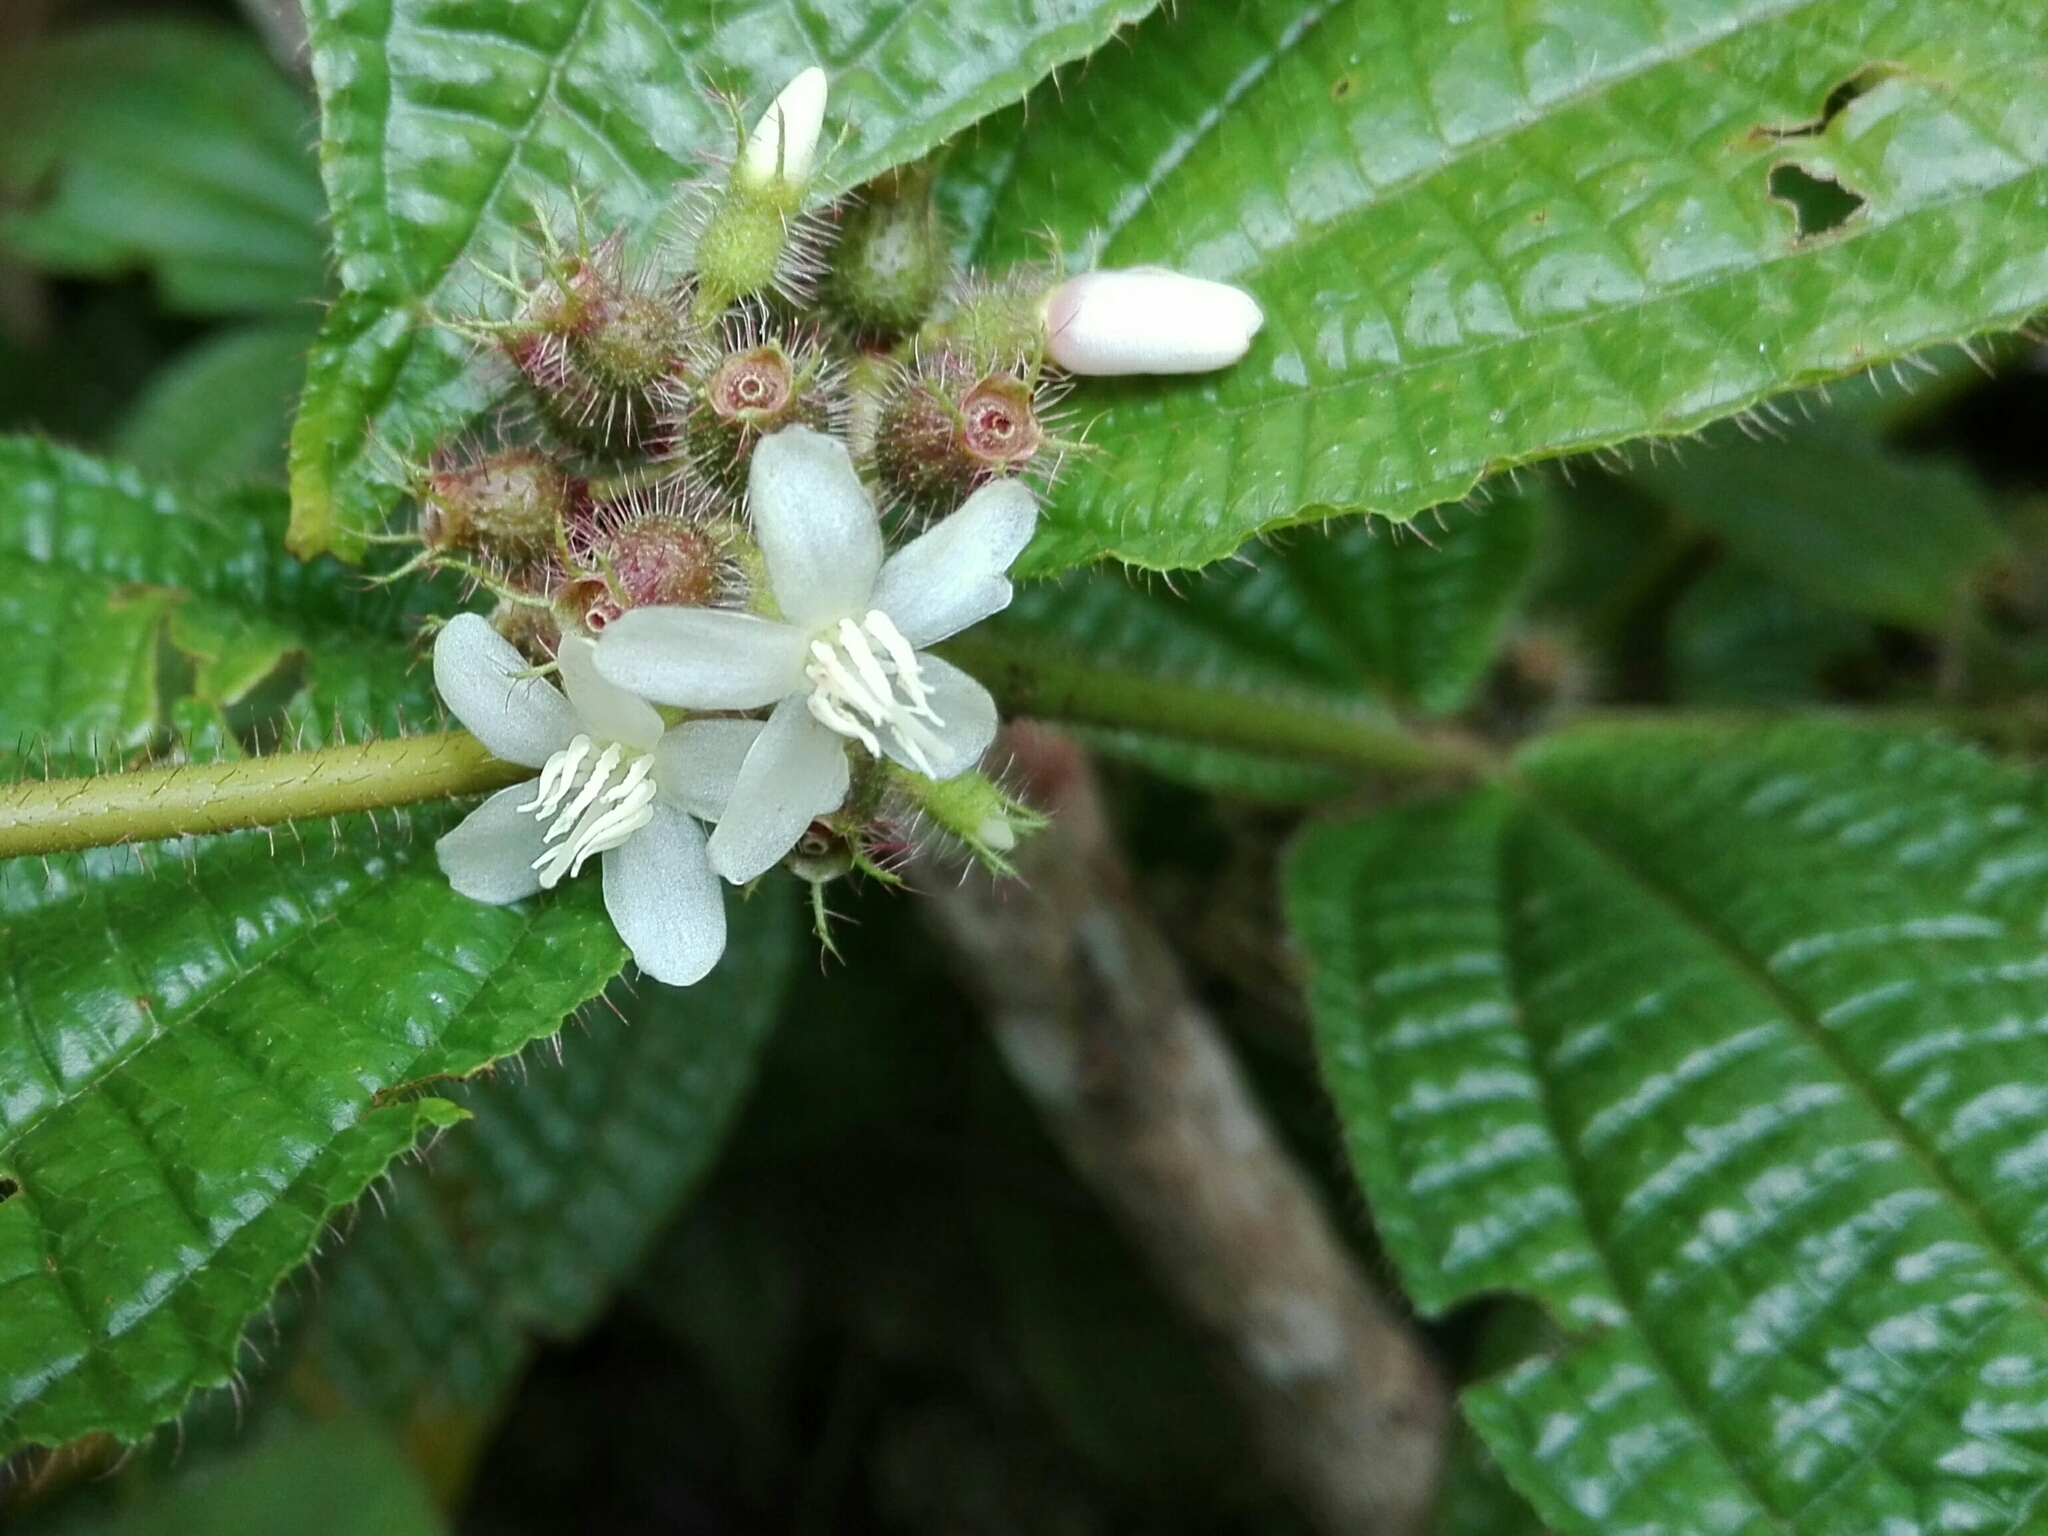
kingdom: Plantae
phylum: Tracheophyta
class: Magnoliopsida
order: Myrtales
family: Melastomataceae
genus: Miconia
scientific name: Miconia crenata
